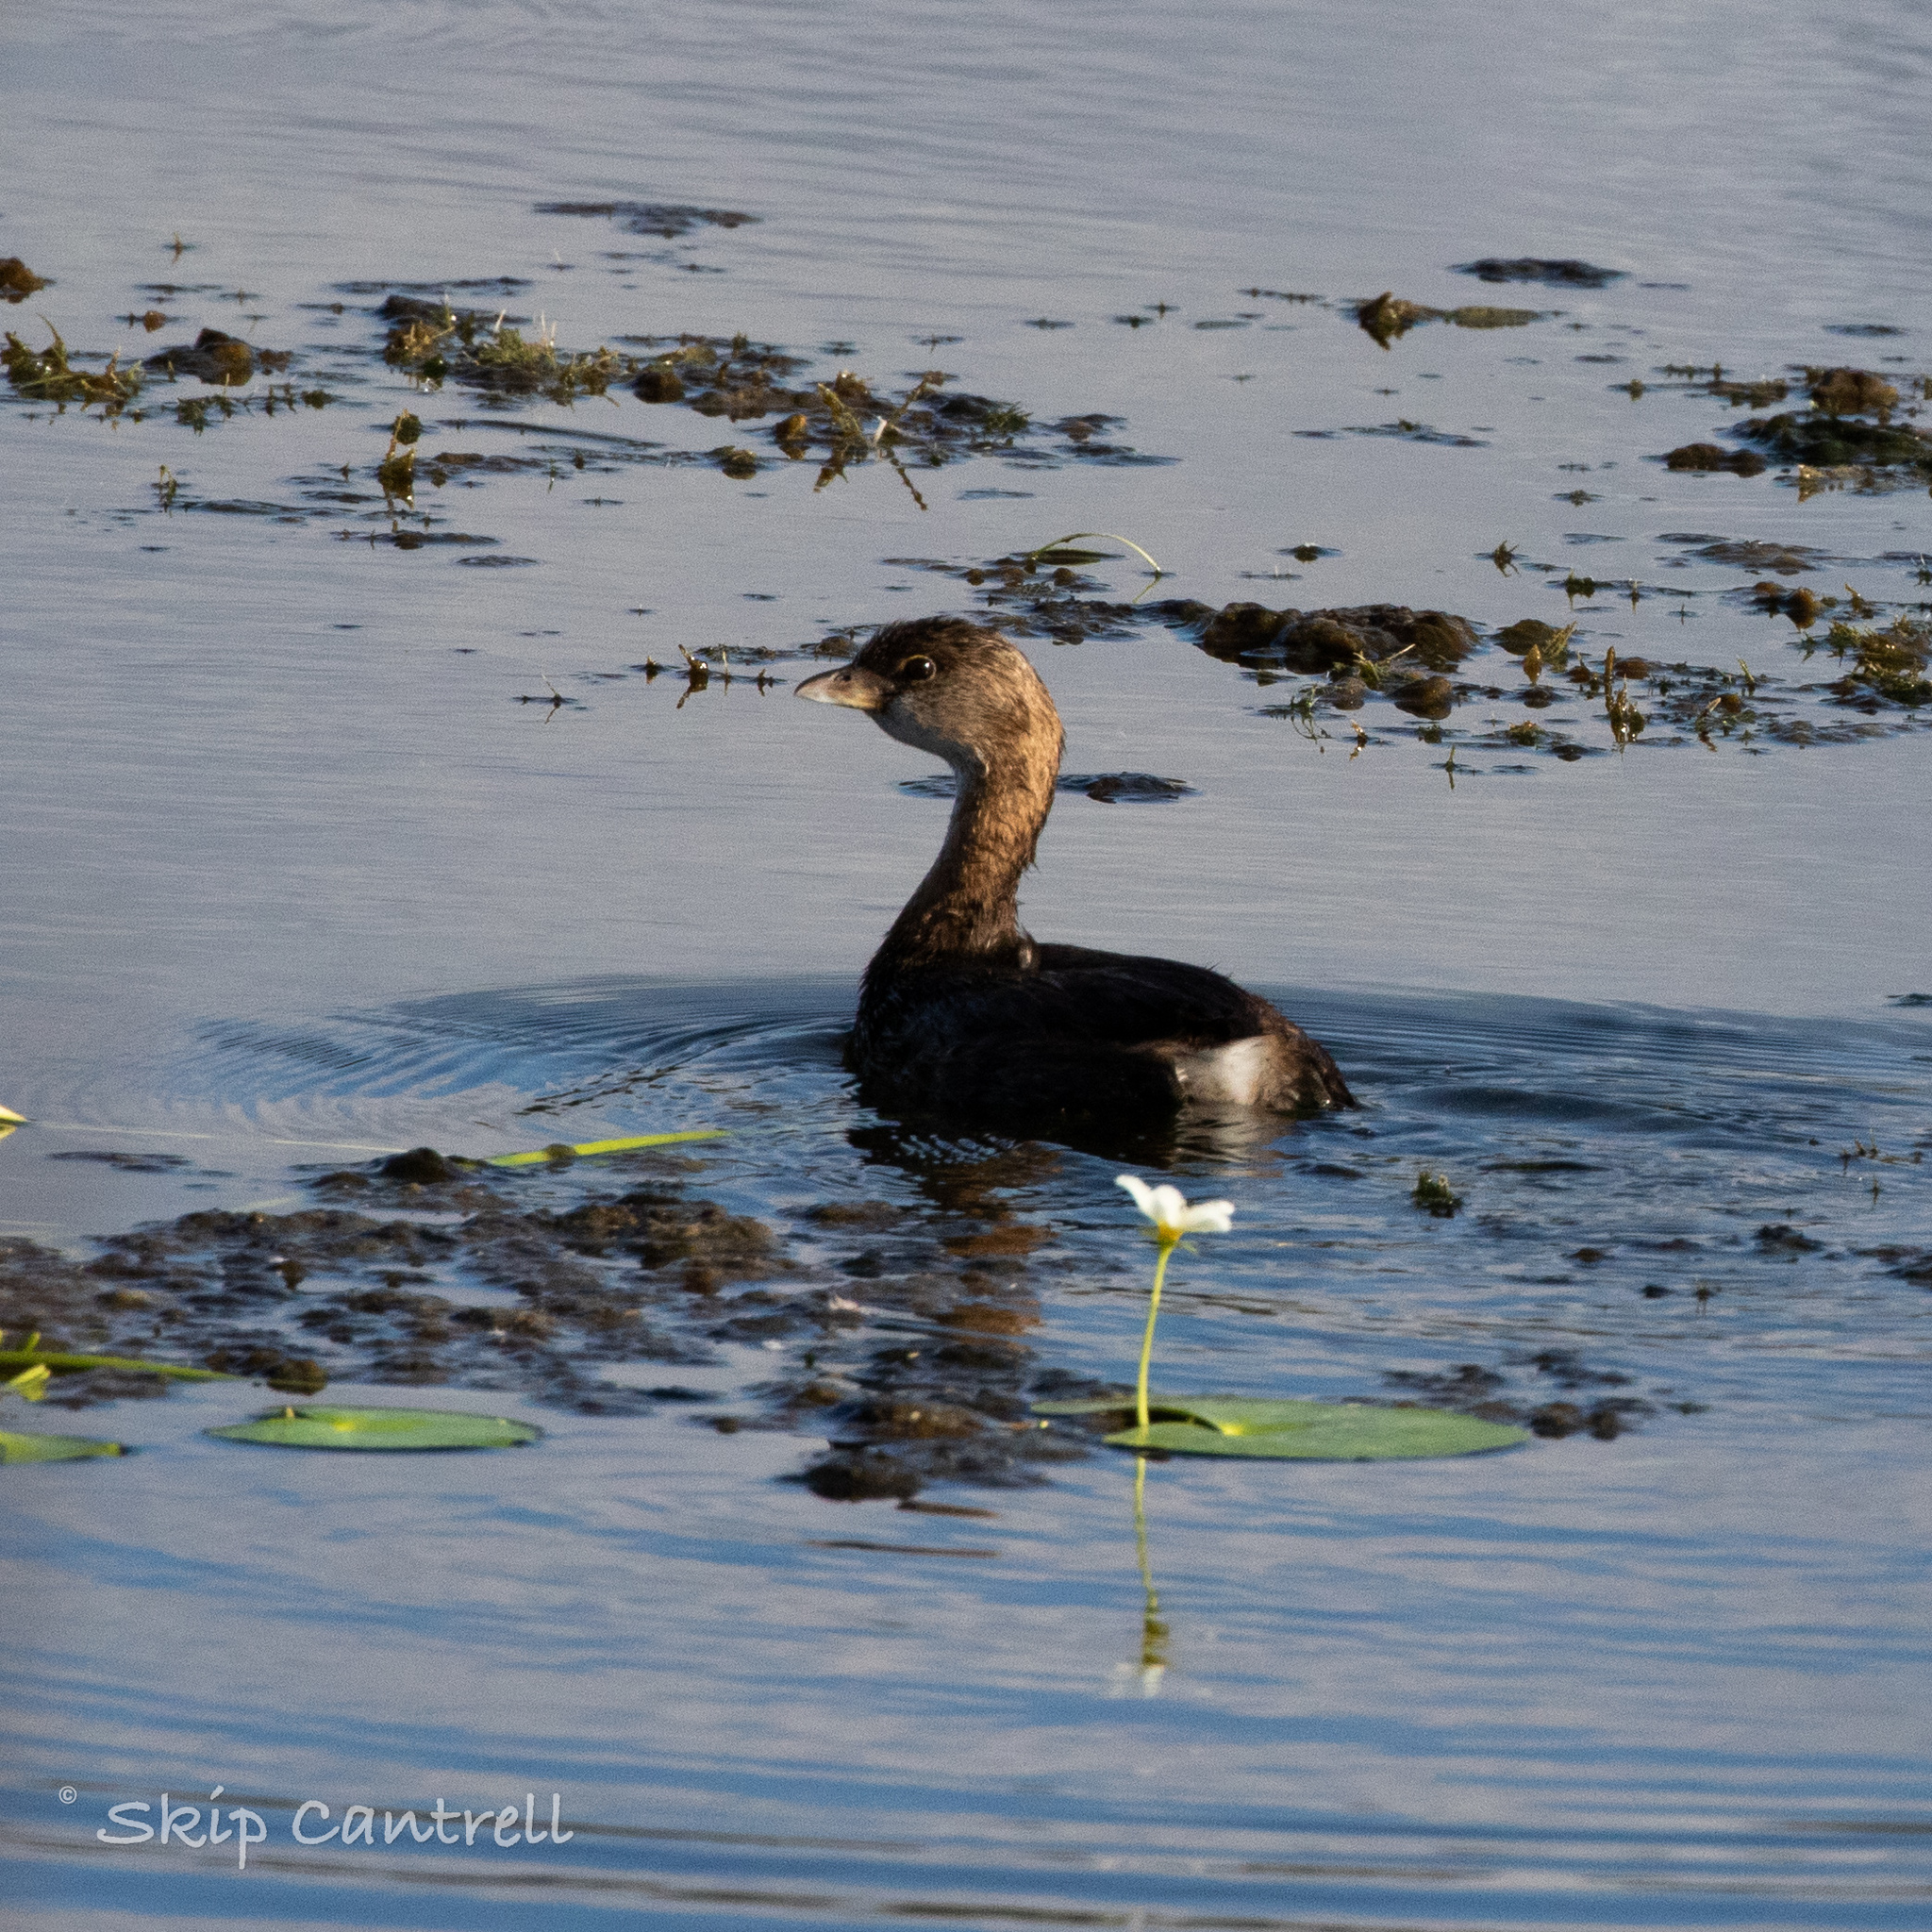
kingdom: Animalia
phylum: Chordata
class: Aves
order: Podicipediformes
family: Podicipedidae
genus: Podilymbus
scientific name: Podilymbus podiceps
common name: Pied-billed grebe
